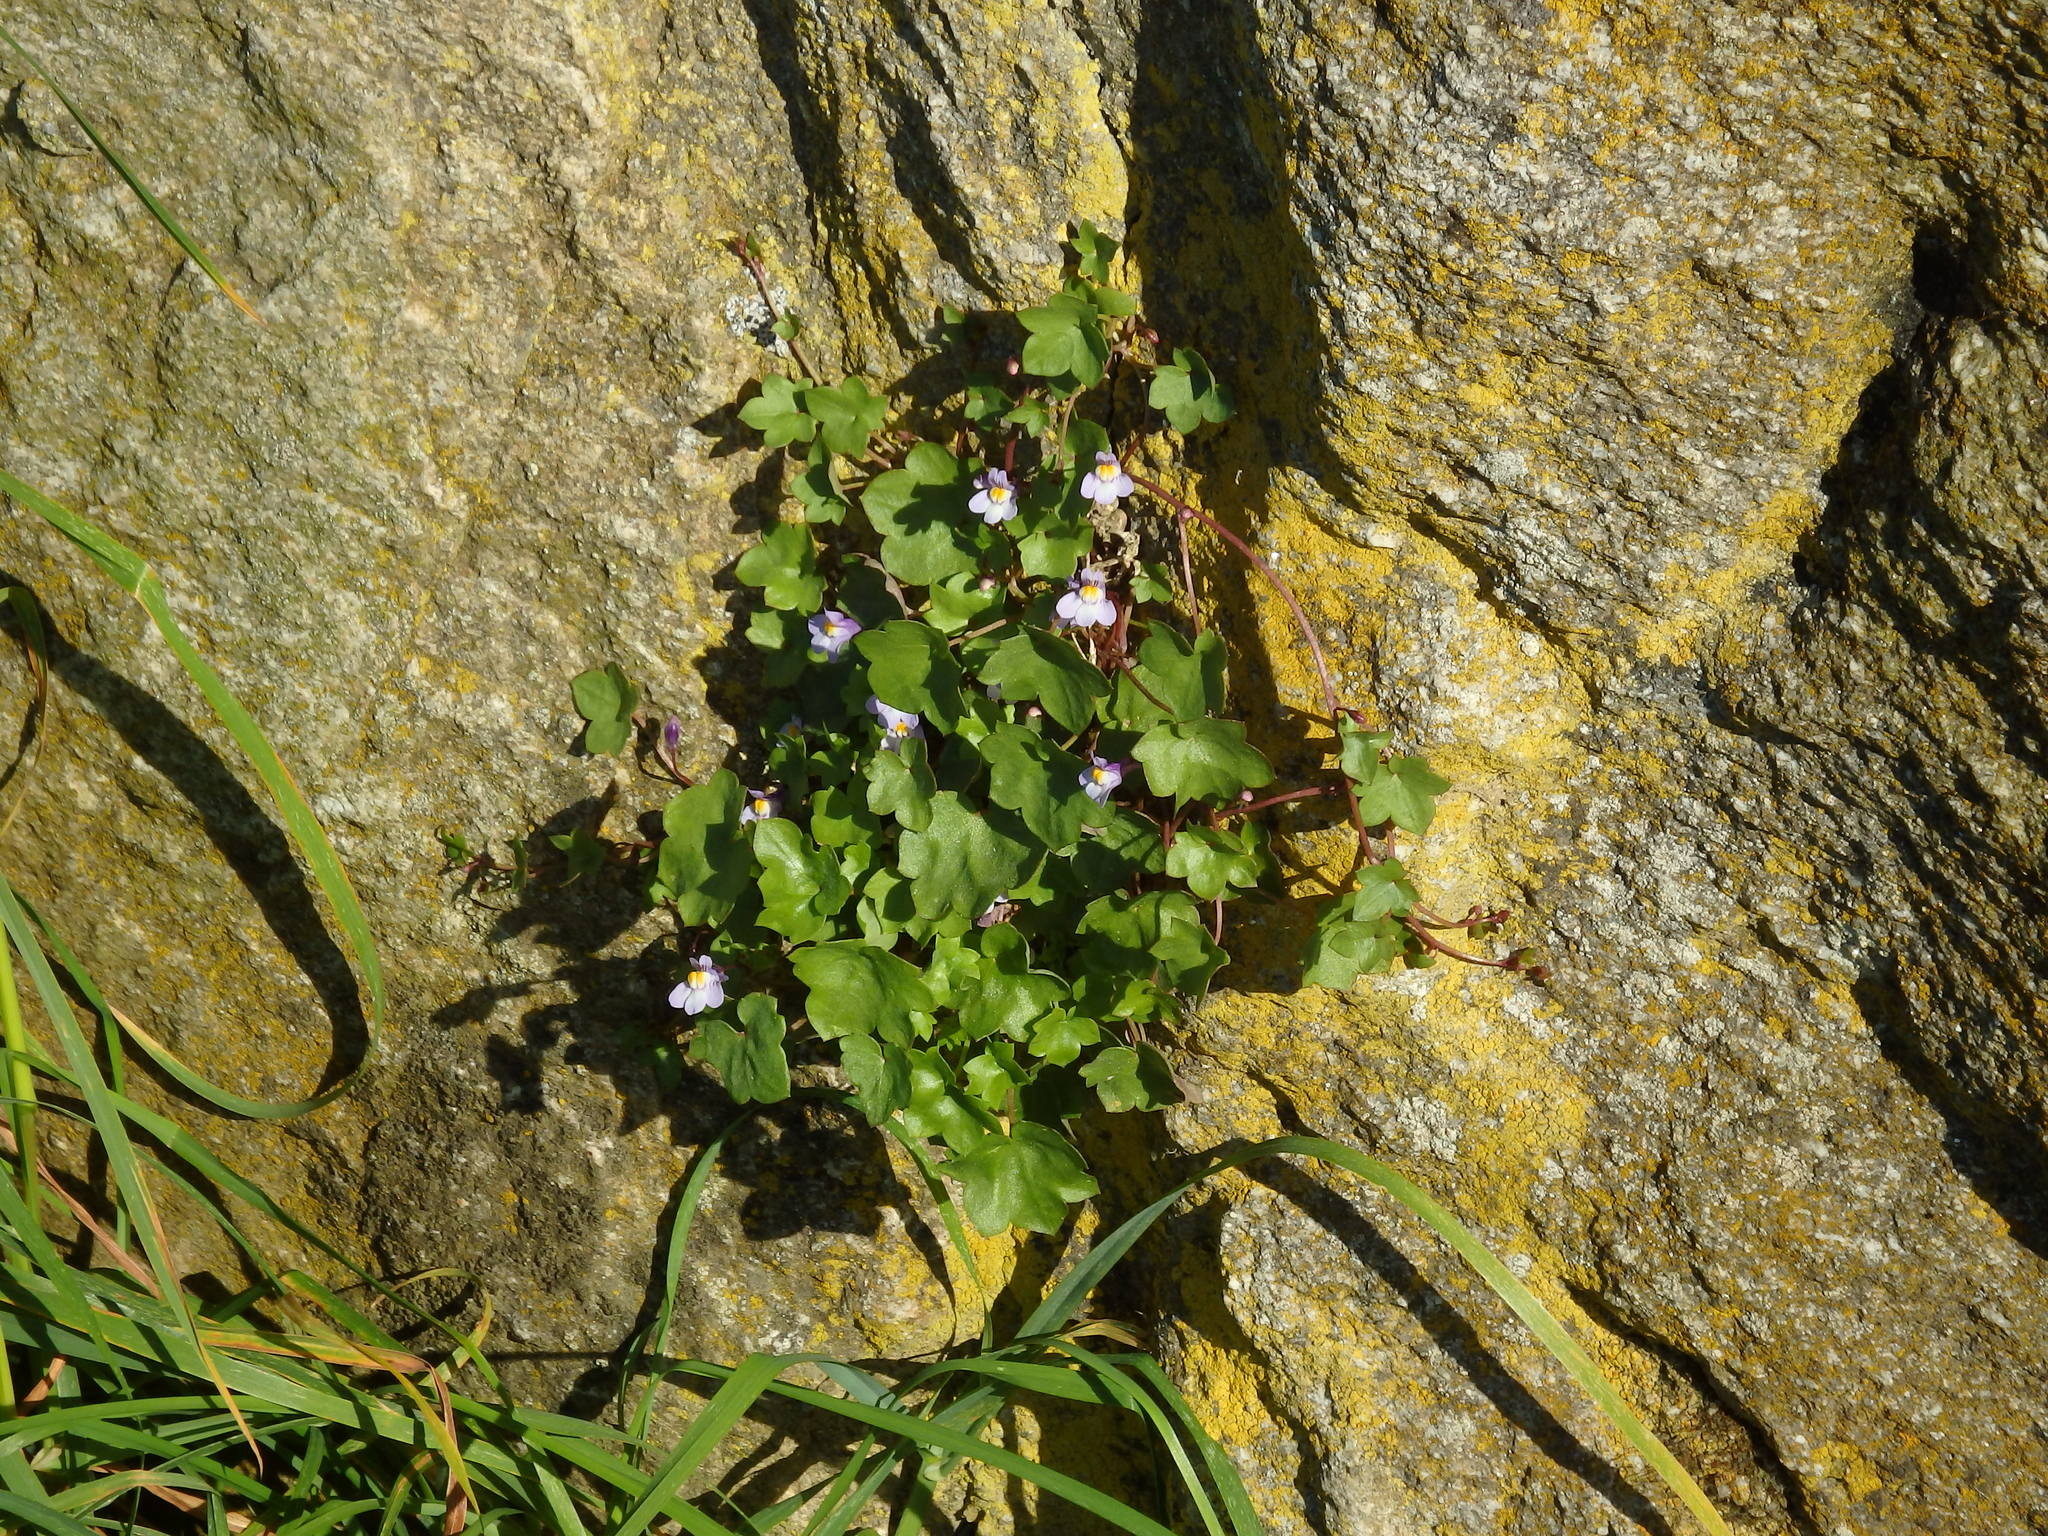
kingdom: Plantae
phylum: Tracheophyta
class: Magnoliopsida
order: Lamiales
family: Plantaginaceae
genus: Cymbalaria
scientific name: Cymbalaria muralis
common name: Ivy-leaved toadflax
